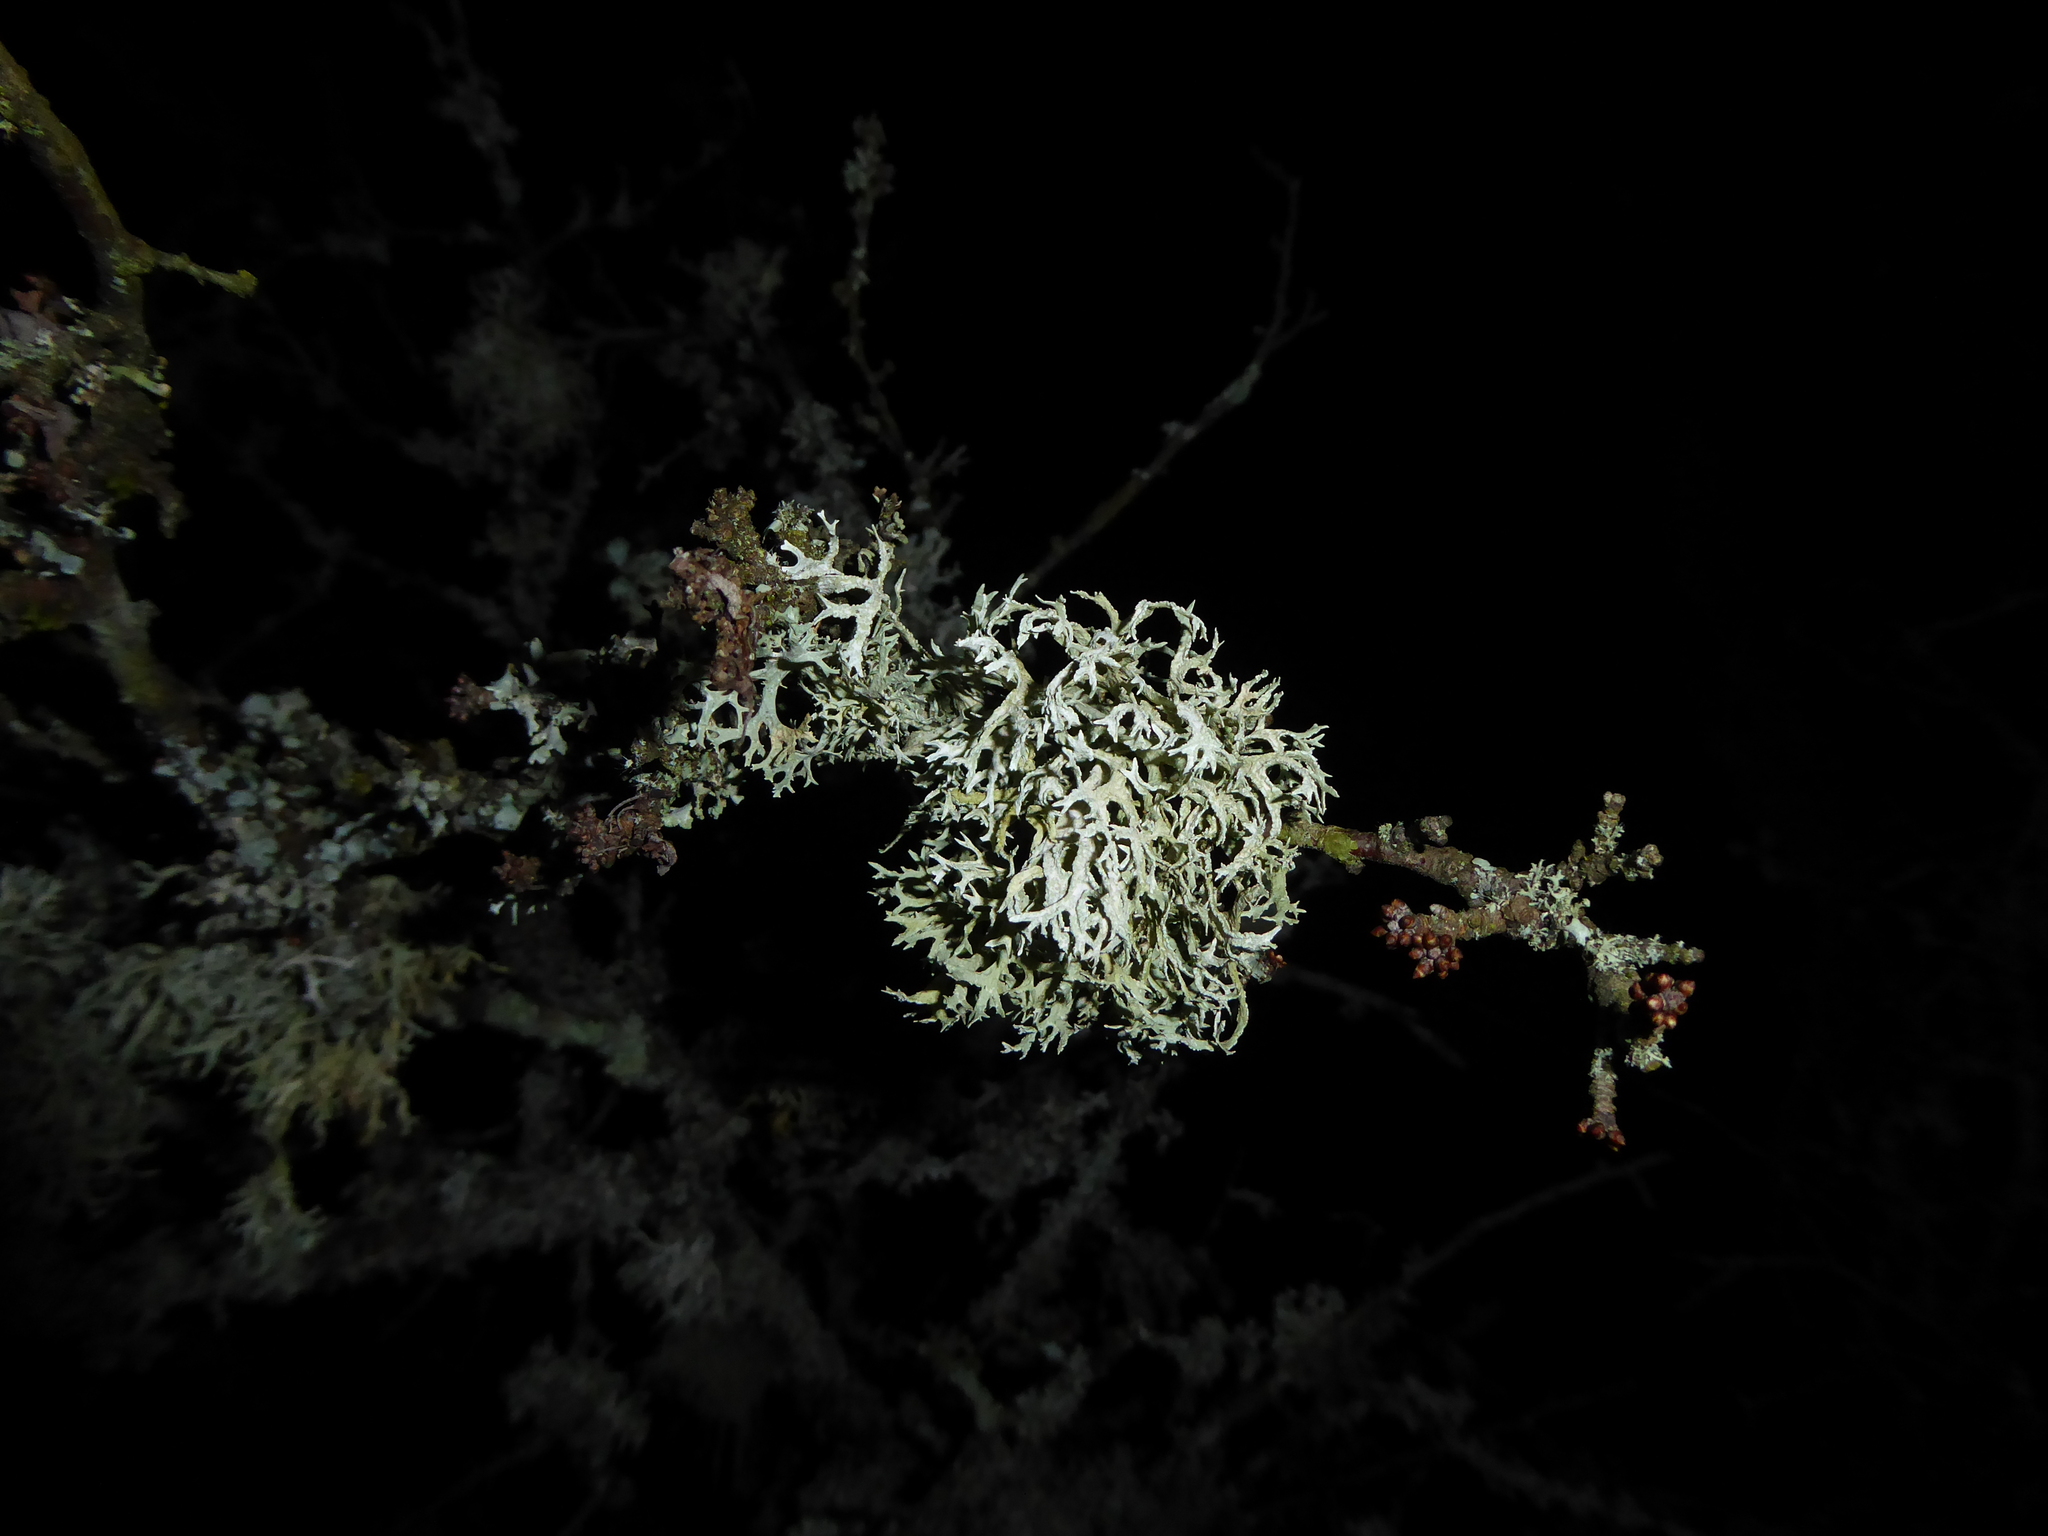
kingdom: Fungi
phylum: Ascomycota
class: Lecanoromycetes
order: Lecanorales
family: Parmeliaceae
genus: Evernia
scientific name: Evernia prunastri
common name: Oak moss
